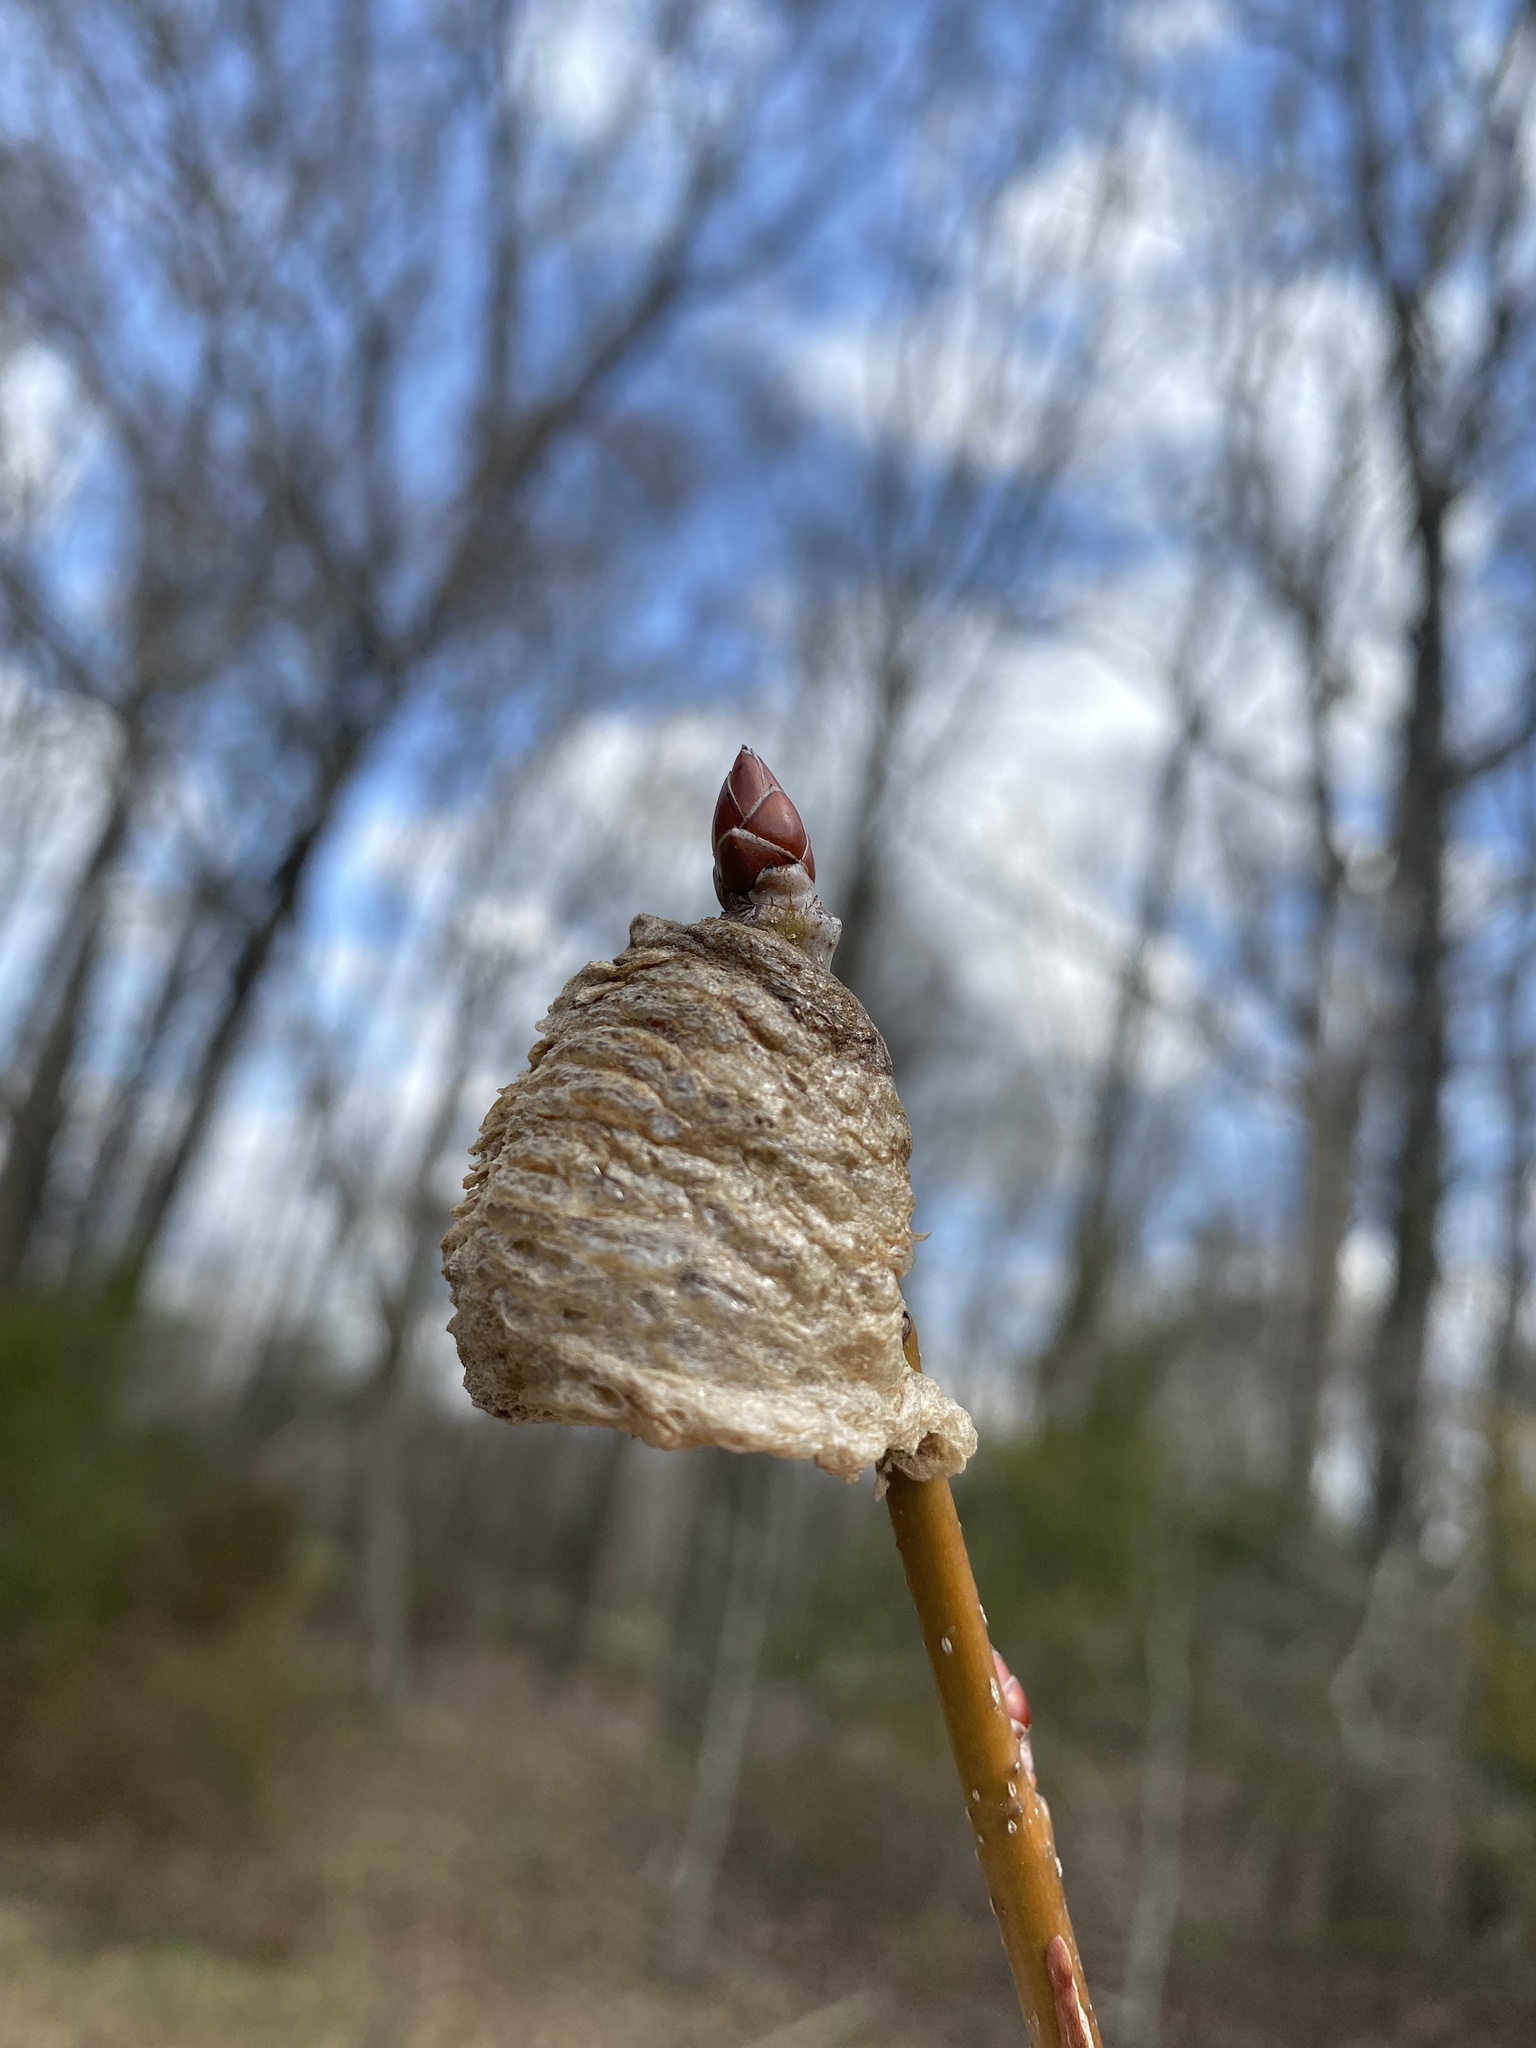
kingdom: Animalia
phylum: Arthropoda
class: Insecta
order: Mantodea
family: Mantidae
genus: Tenodera
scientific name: Tenodera sinensis
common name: Chinese mantis
